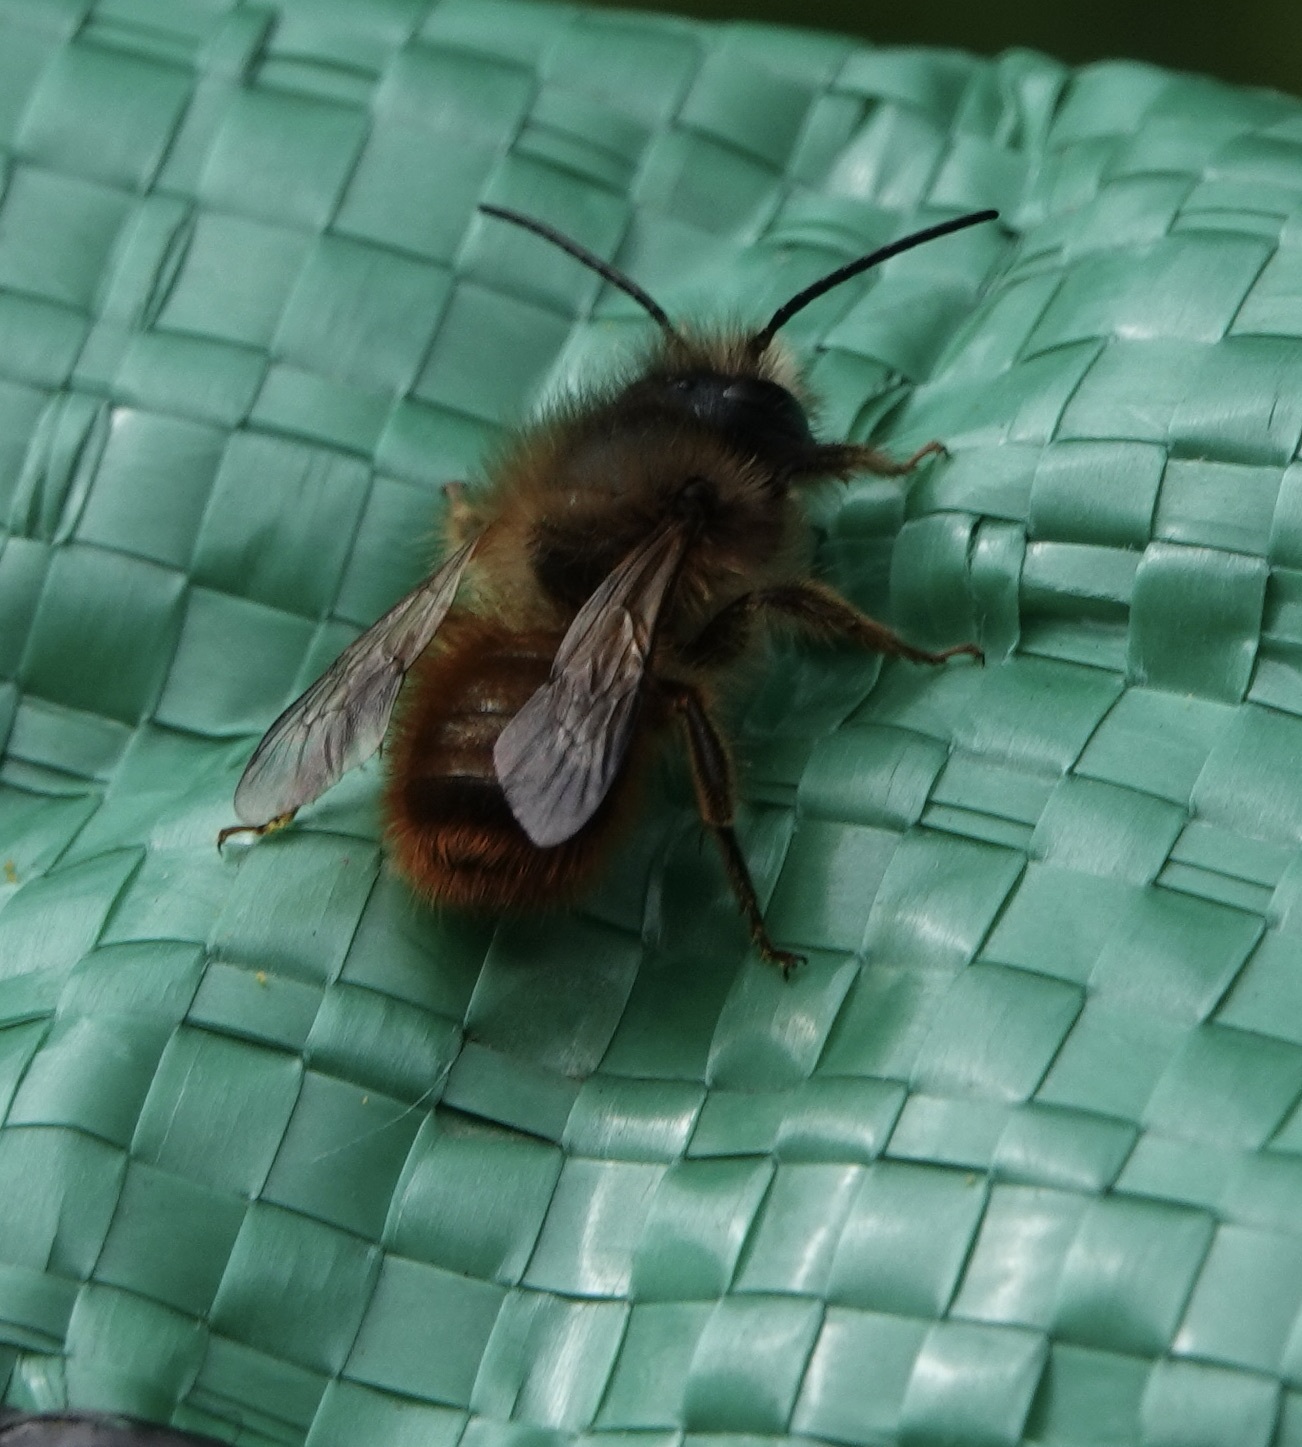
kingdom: Animalia
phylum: Arthropoda
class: Insecta
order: Hymenoptera
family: Megachilidae
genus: Osmia
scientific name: Osmia bicornis
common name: Red mason bee
